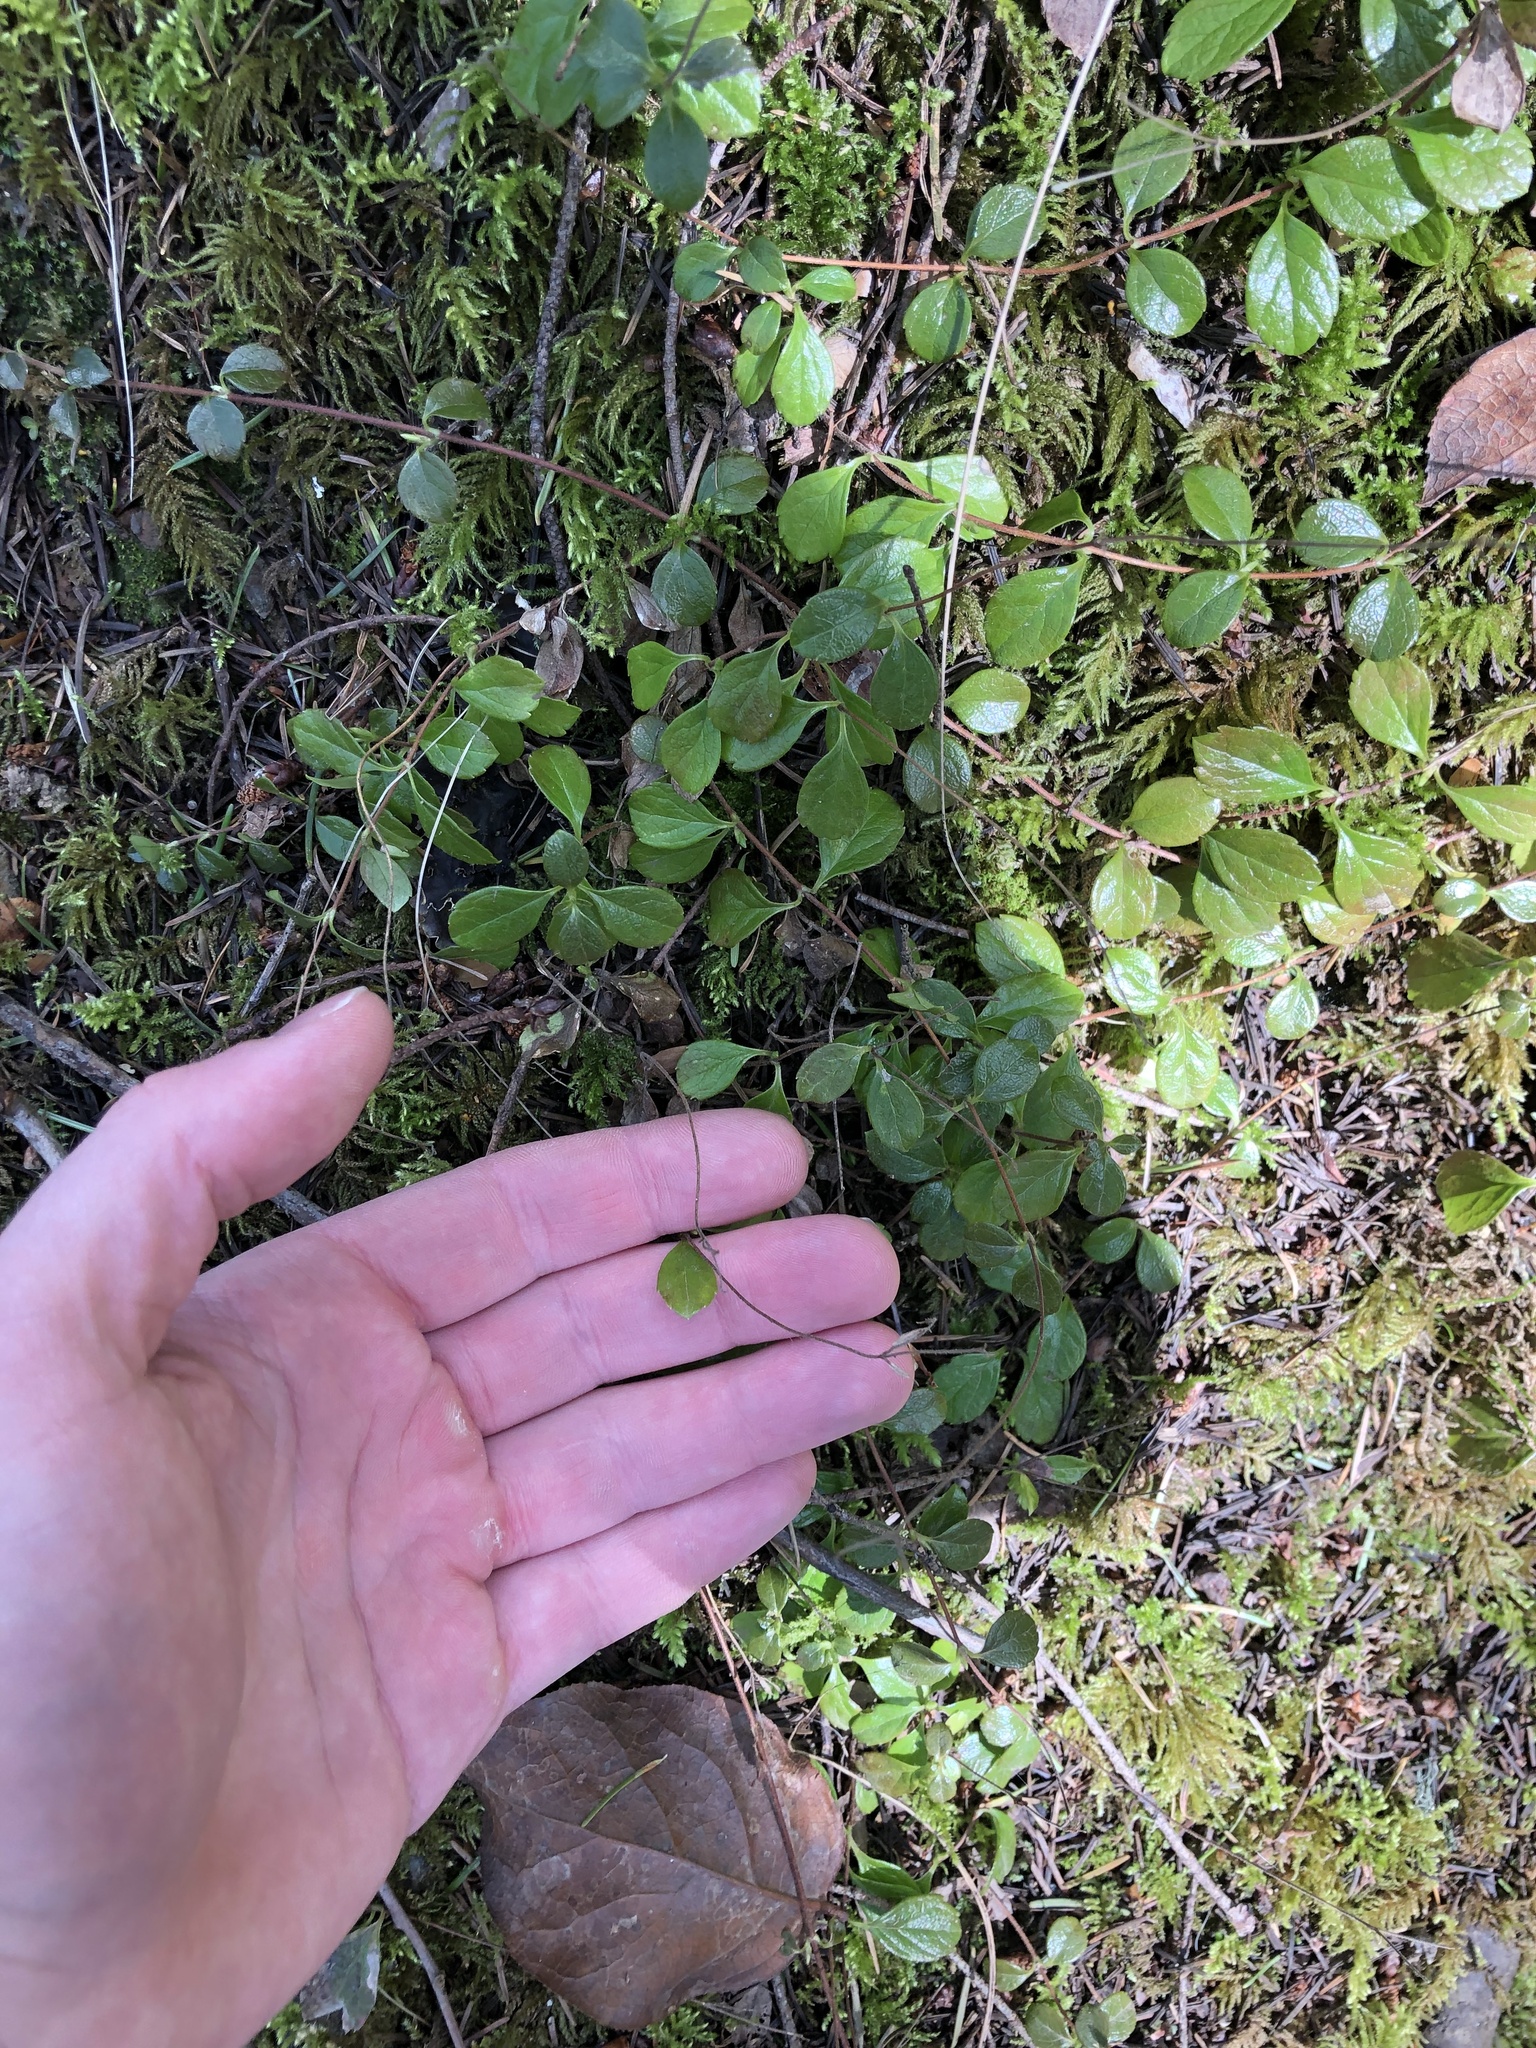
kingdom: Plantae
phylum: Tracheophyta
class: Magnoliopsida
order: Dipsacales
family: Caprifoliaceae
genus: Linnaea
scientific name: Linnaea borealis
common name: Twinflower
